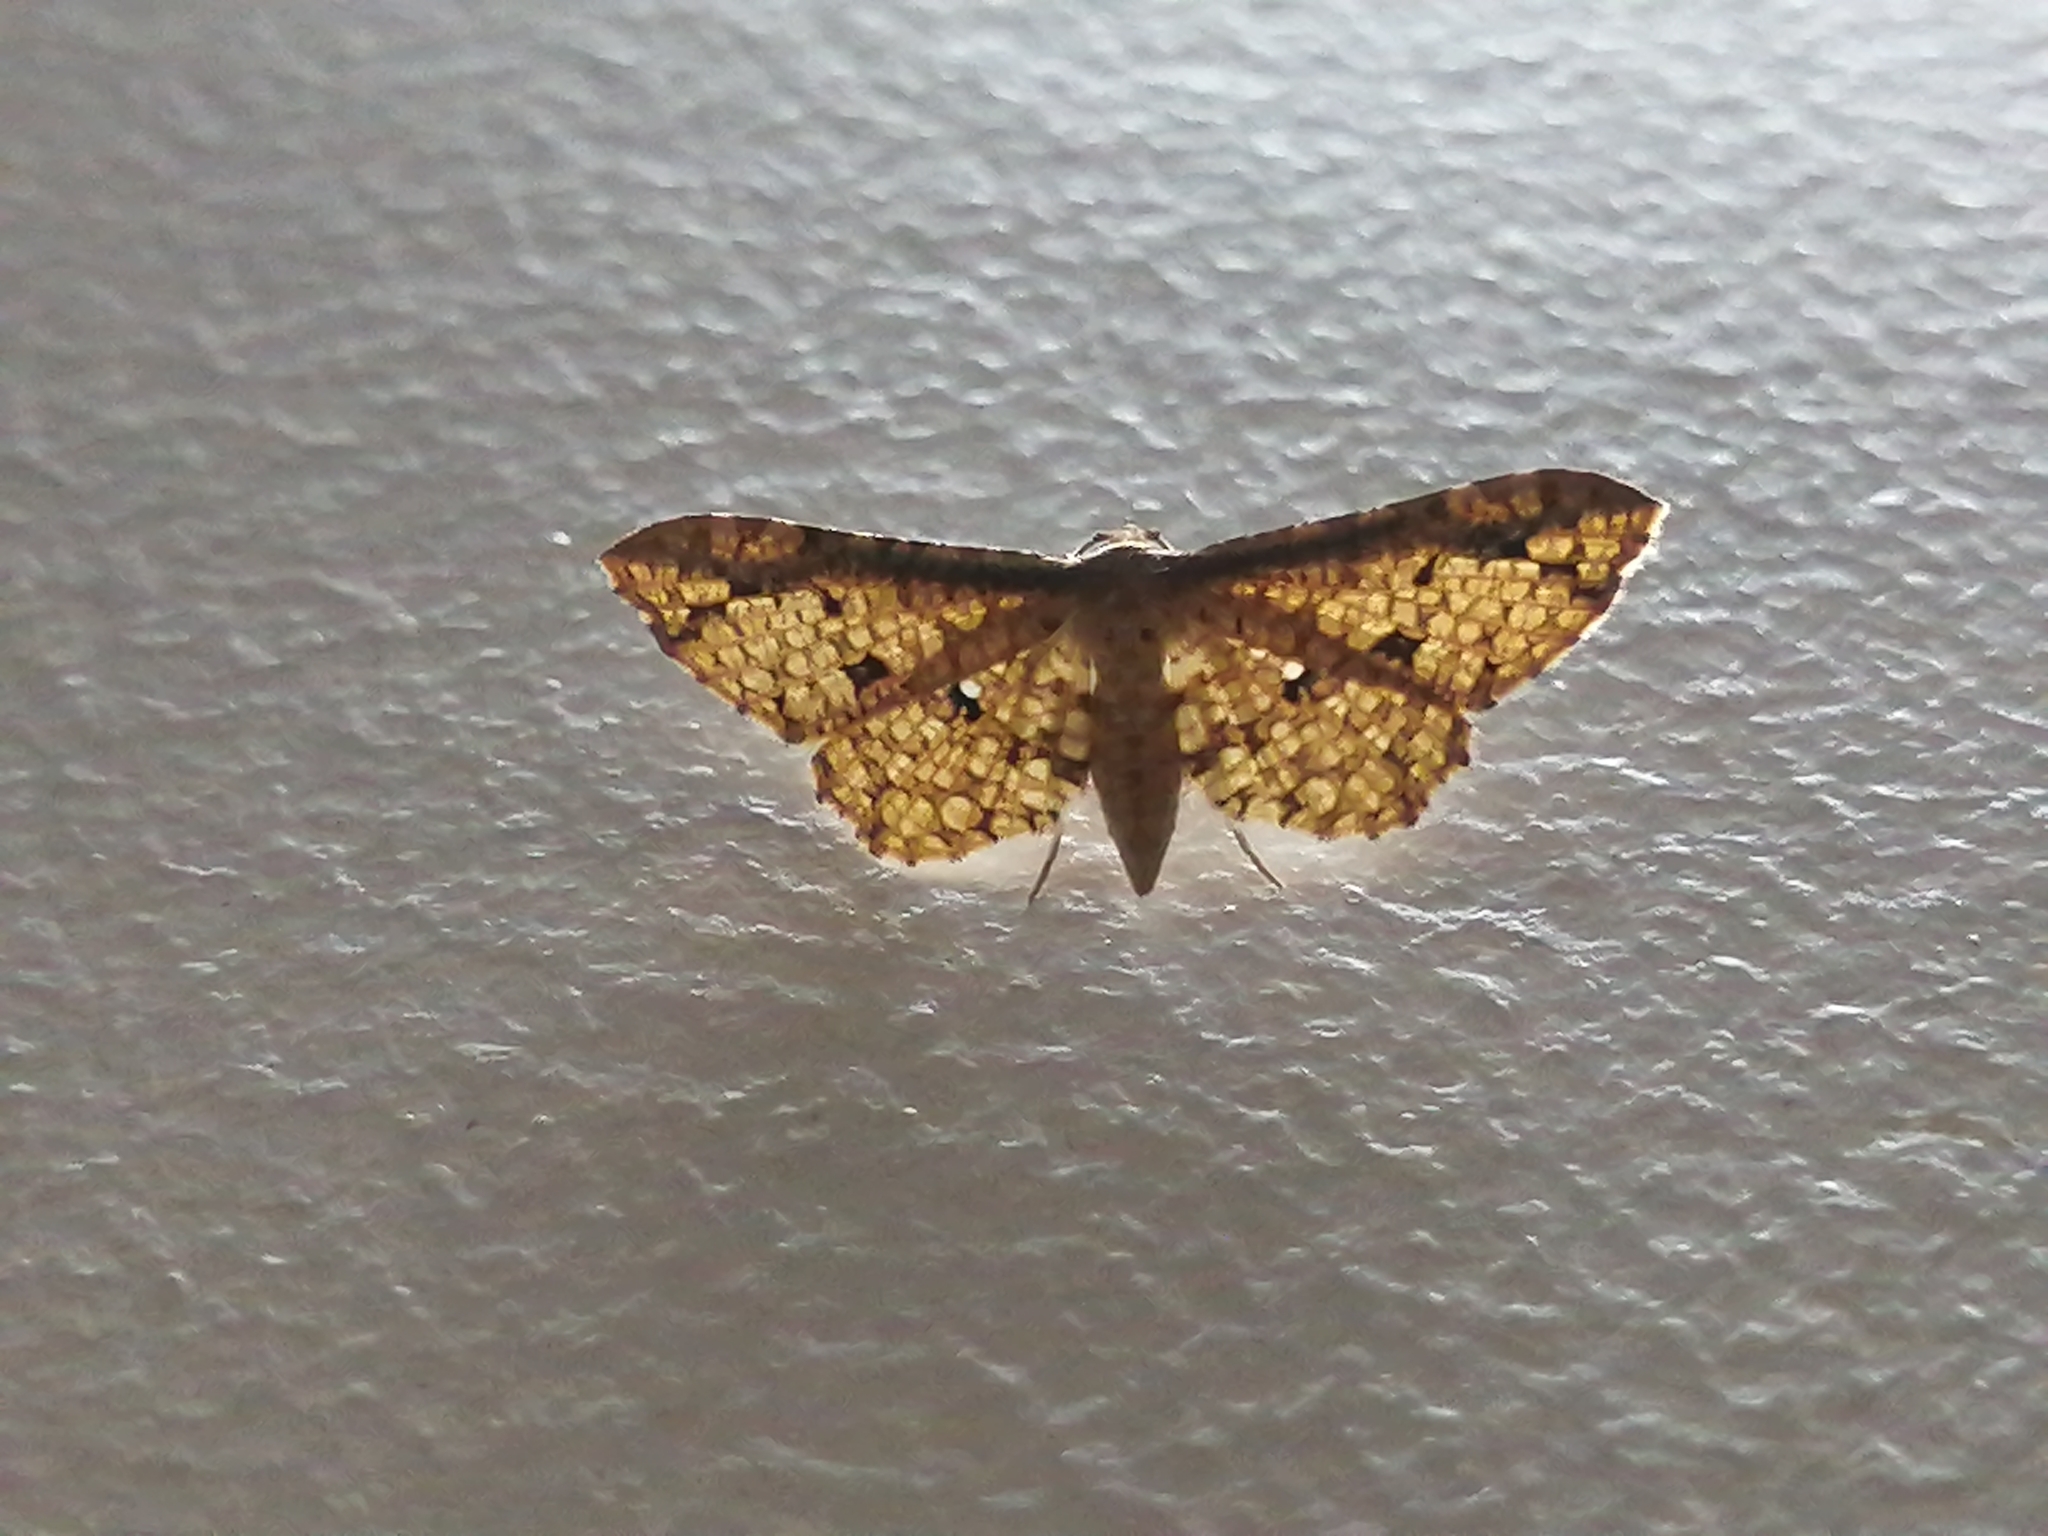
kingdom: Animalia
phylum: Arthropoda
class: Insecta
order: Lepidoptera
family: Thyrididae
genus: Pharambara
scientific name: Pharambara splendida
